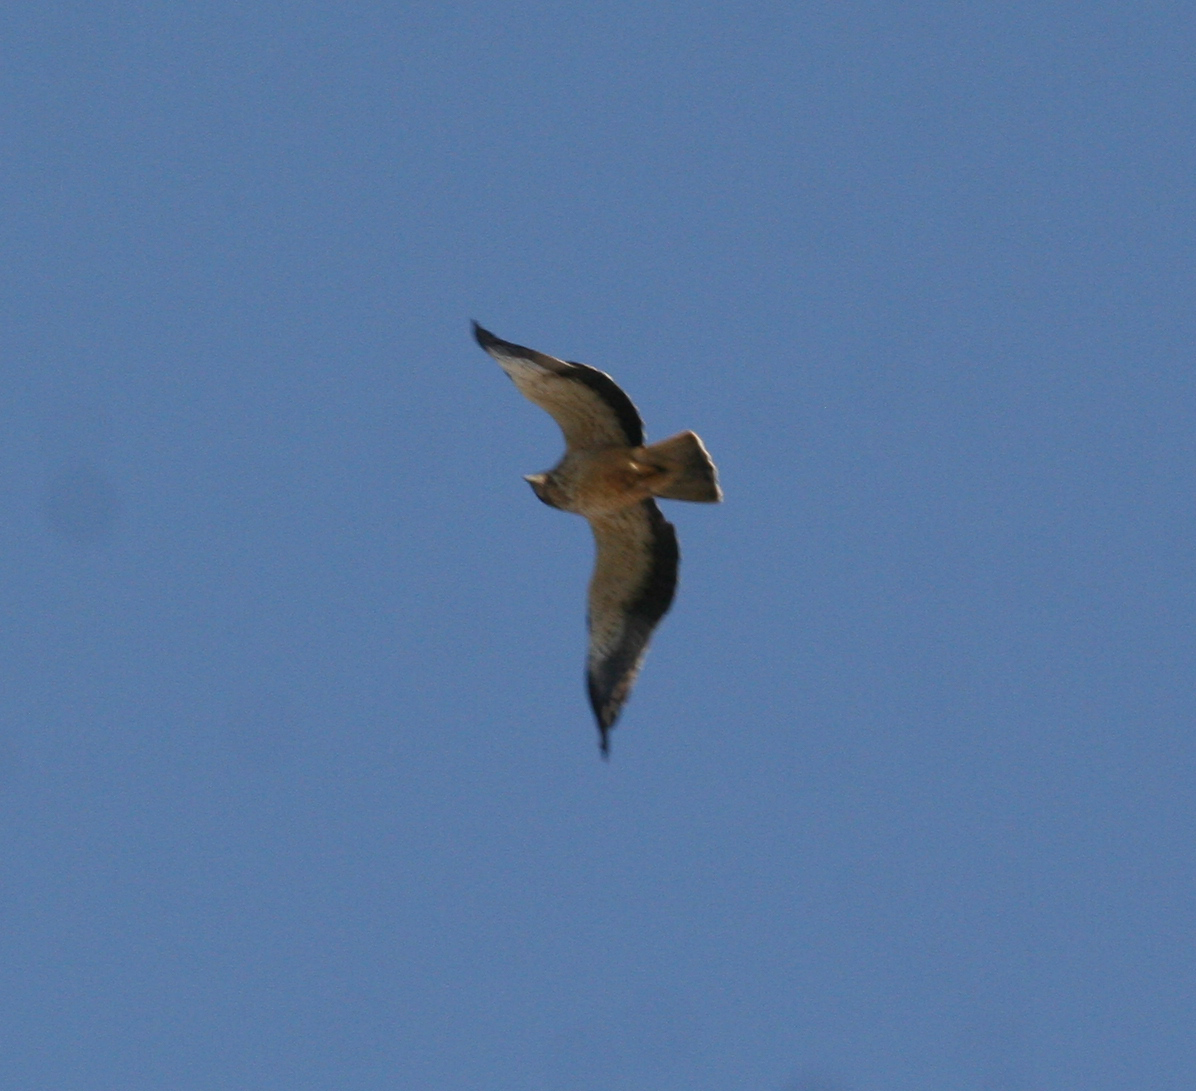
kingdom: Animalia
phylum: Chordata
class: Aves
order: Accipitriformes
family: Accipitridae
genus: Hieraaetus
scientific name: Hieraaetus pennatus
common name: Booted eagle
